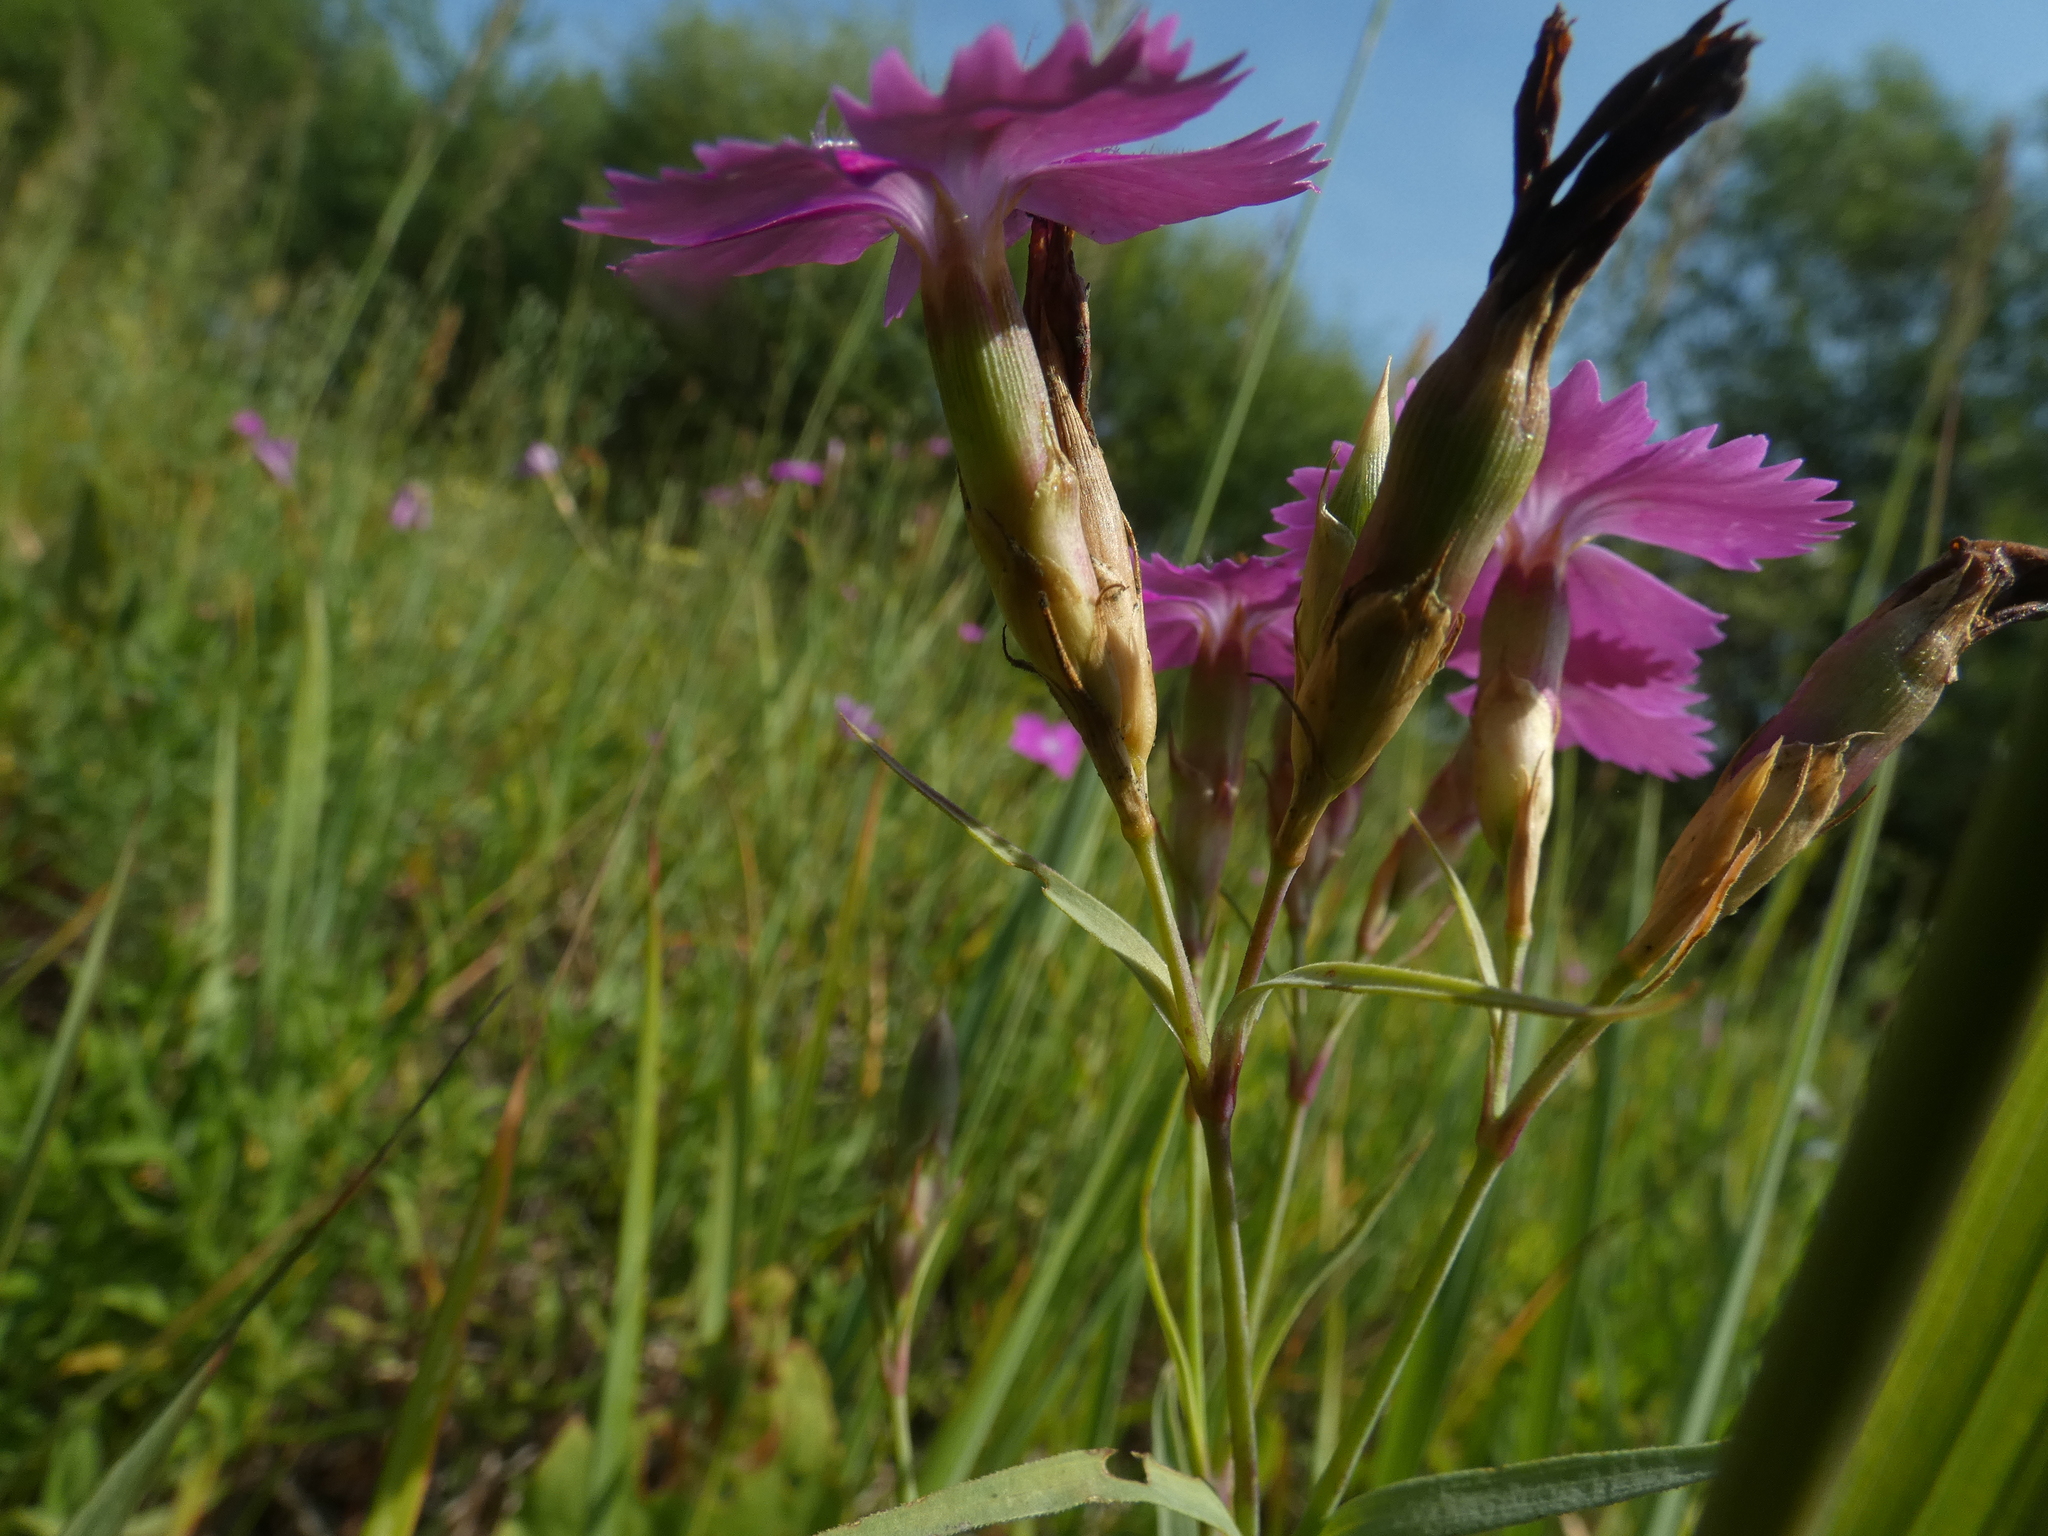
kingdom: Plantae
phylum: Tracheophyta
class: Magnoliopsida
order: Caryophyllales
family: Caryophyllaceae
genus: Dianthus
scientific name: Dianthus chinensis
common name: Rainbow pink
